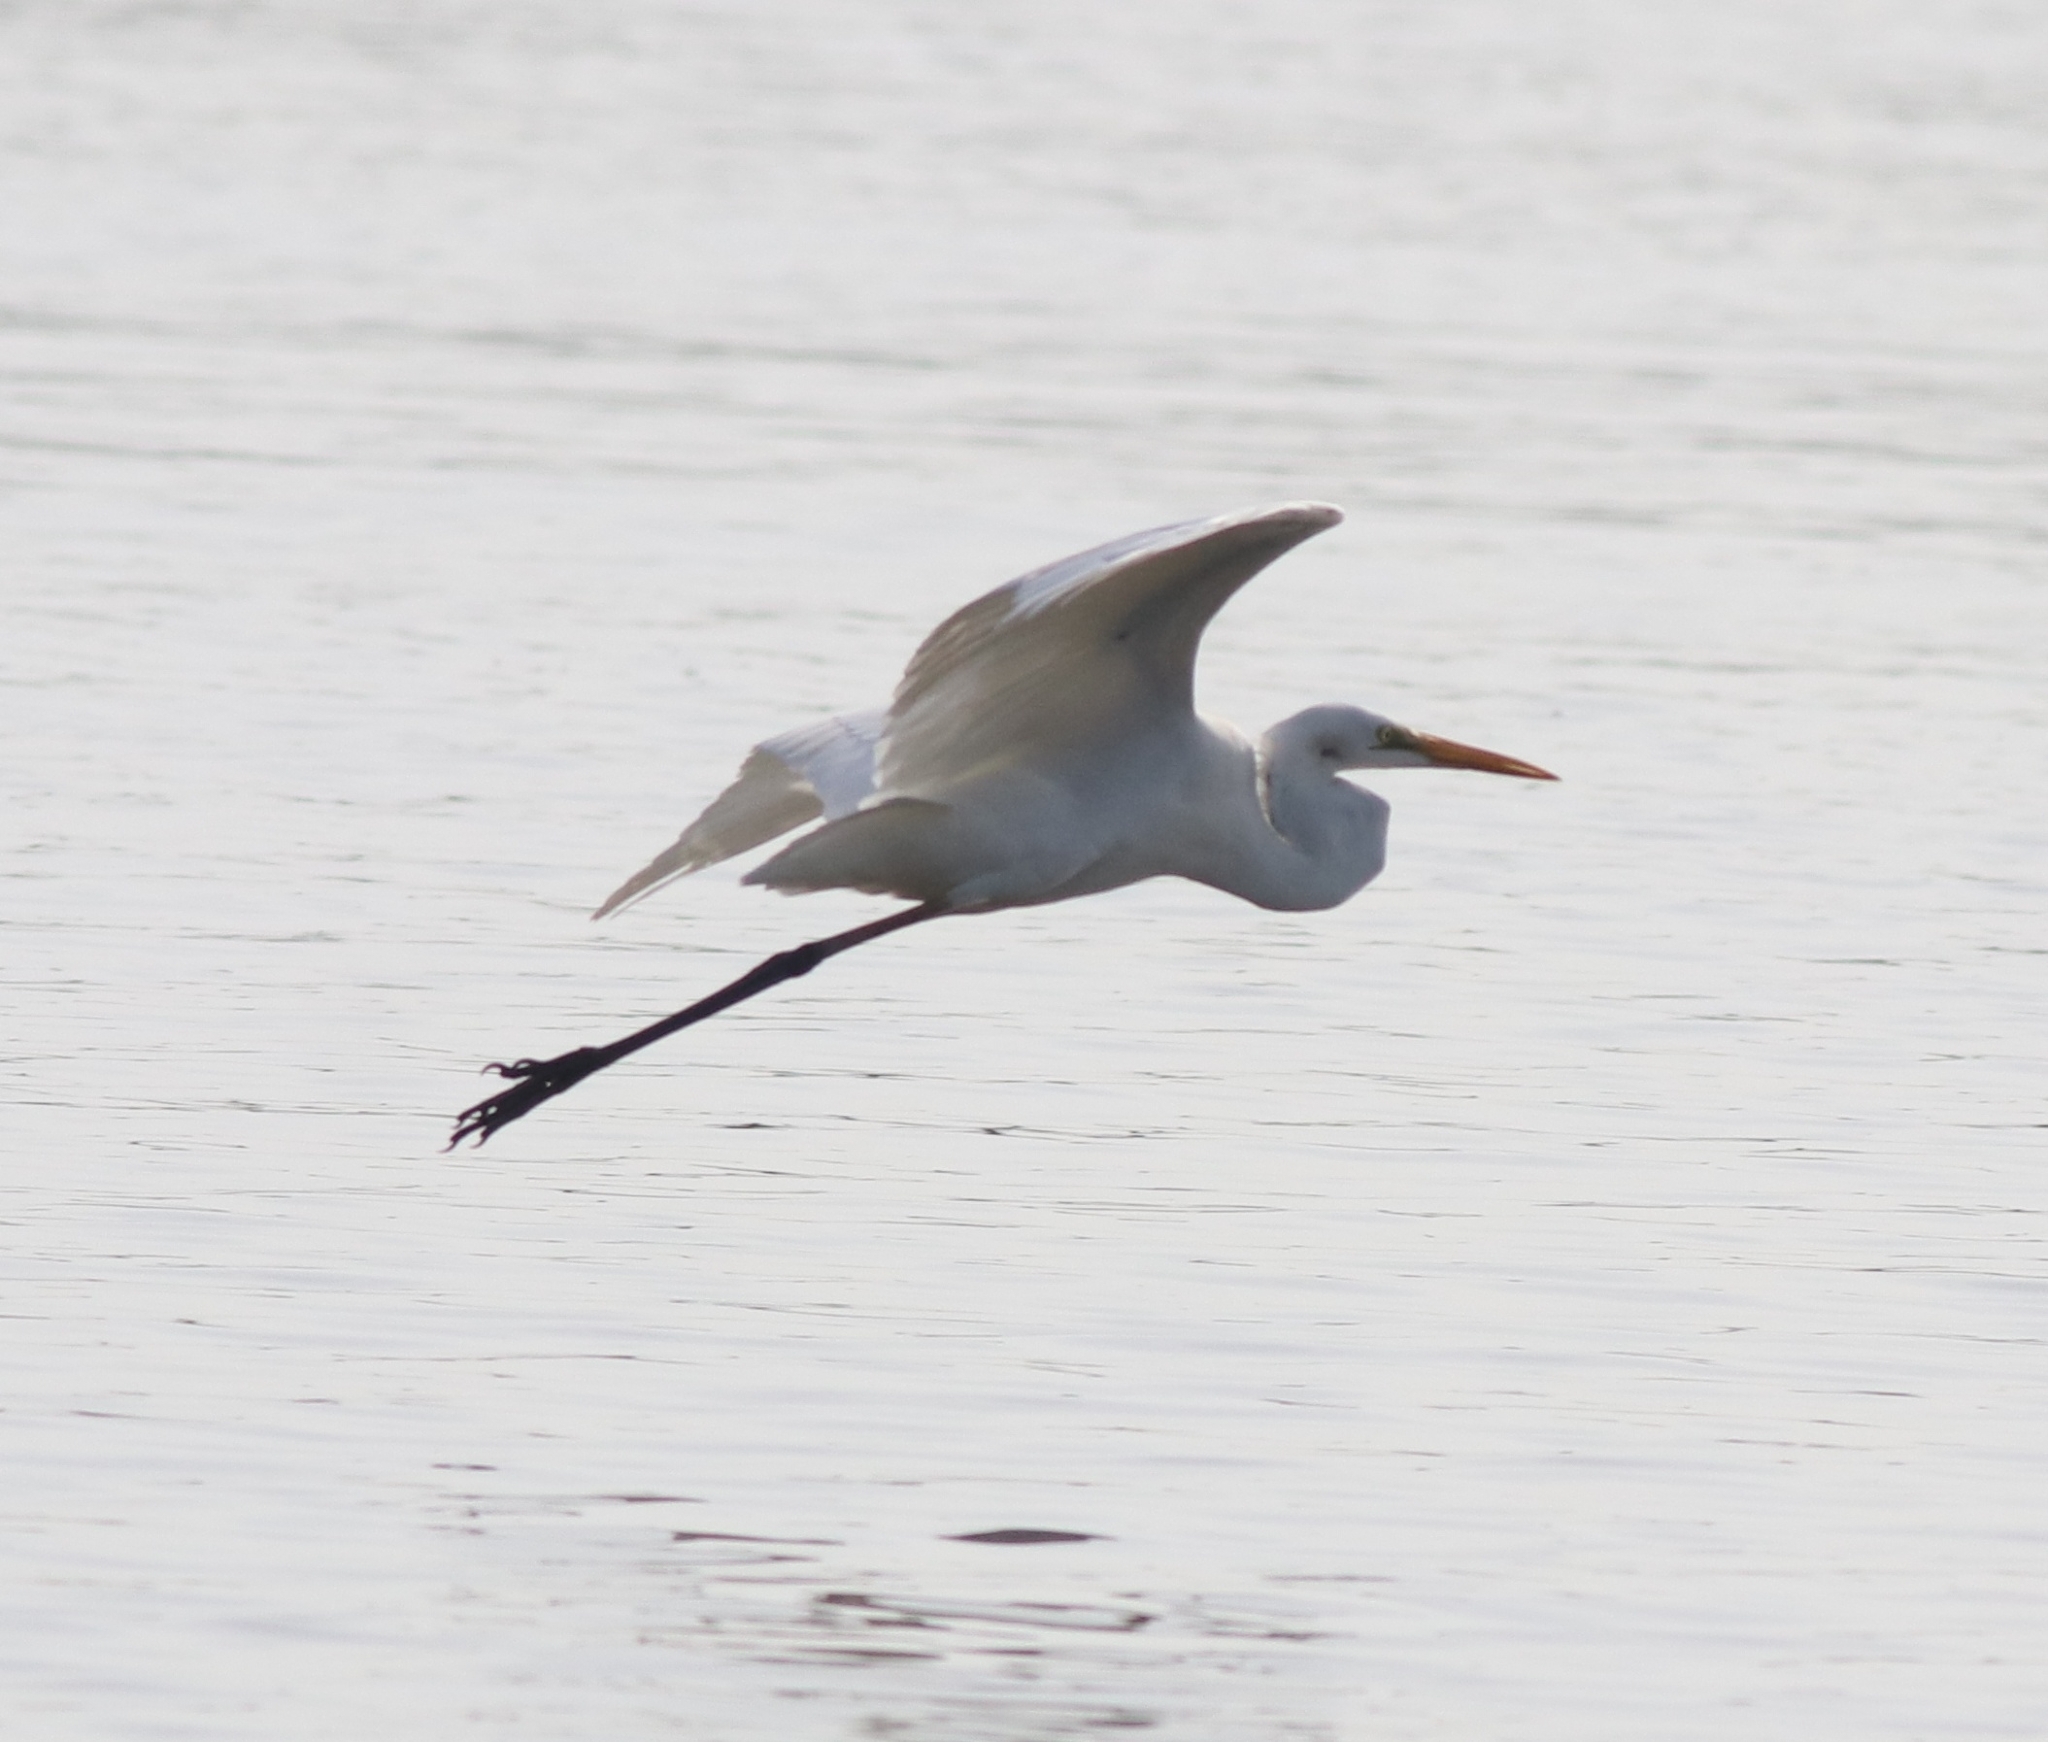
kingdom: Animalia
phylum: Chordata
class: Aves
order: Pelecaniformes
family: Ardeidae
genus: Ardea
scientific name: Ardea alba
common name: Great egret
